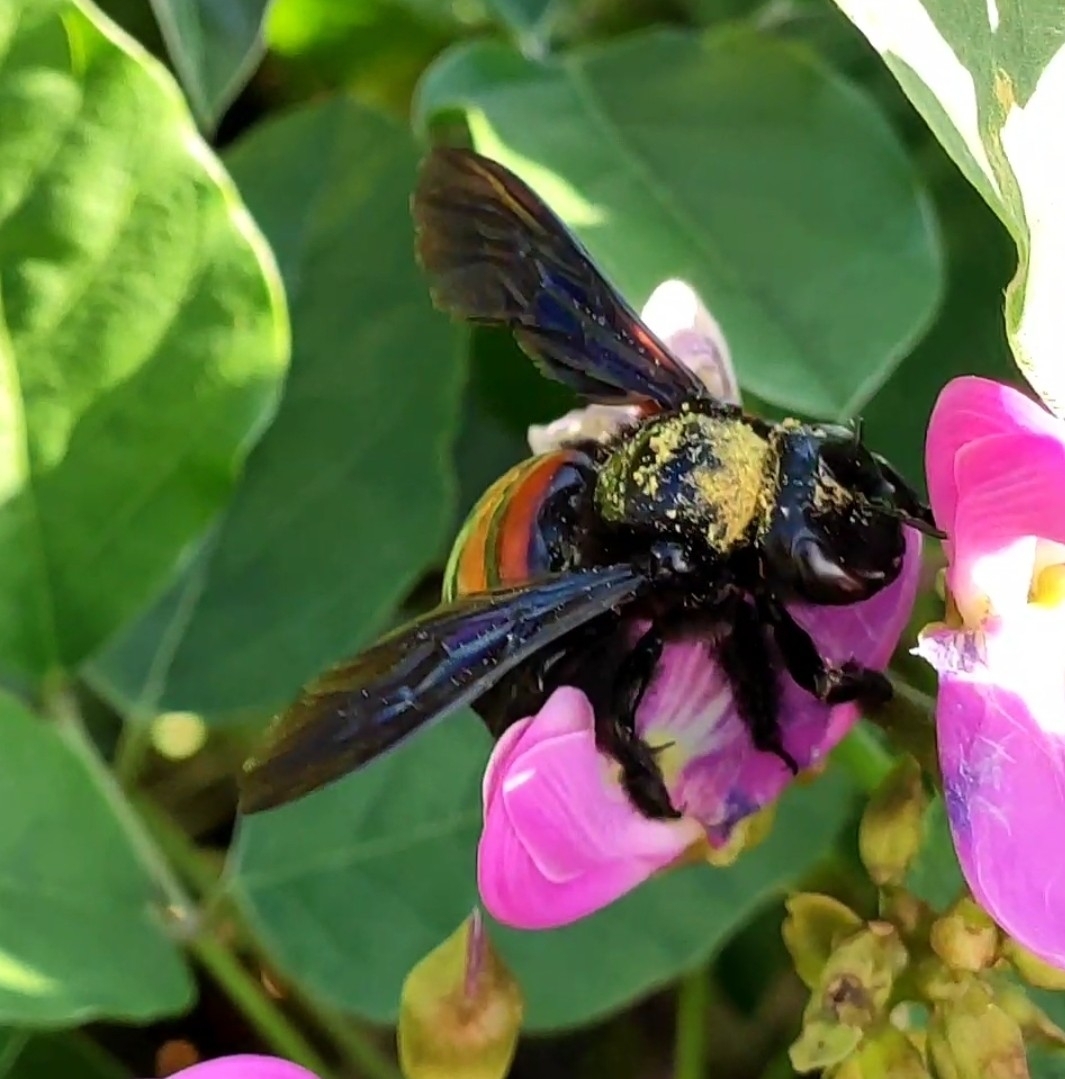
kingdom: Animalia
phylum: Arthropoda
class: Insecta
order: Hymenoptera
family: Apidae
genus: Xylocopa
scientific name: Xylocopa frontalis
